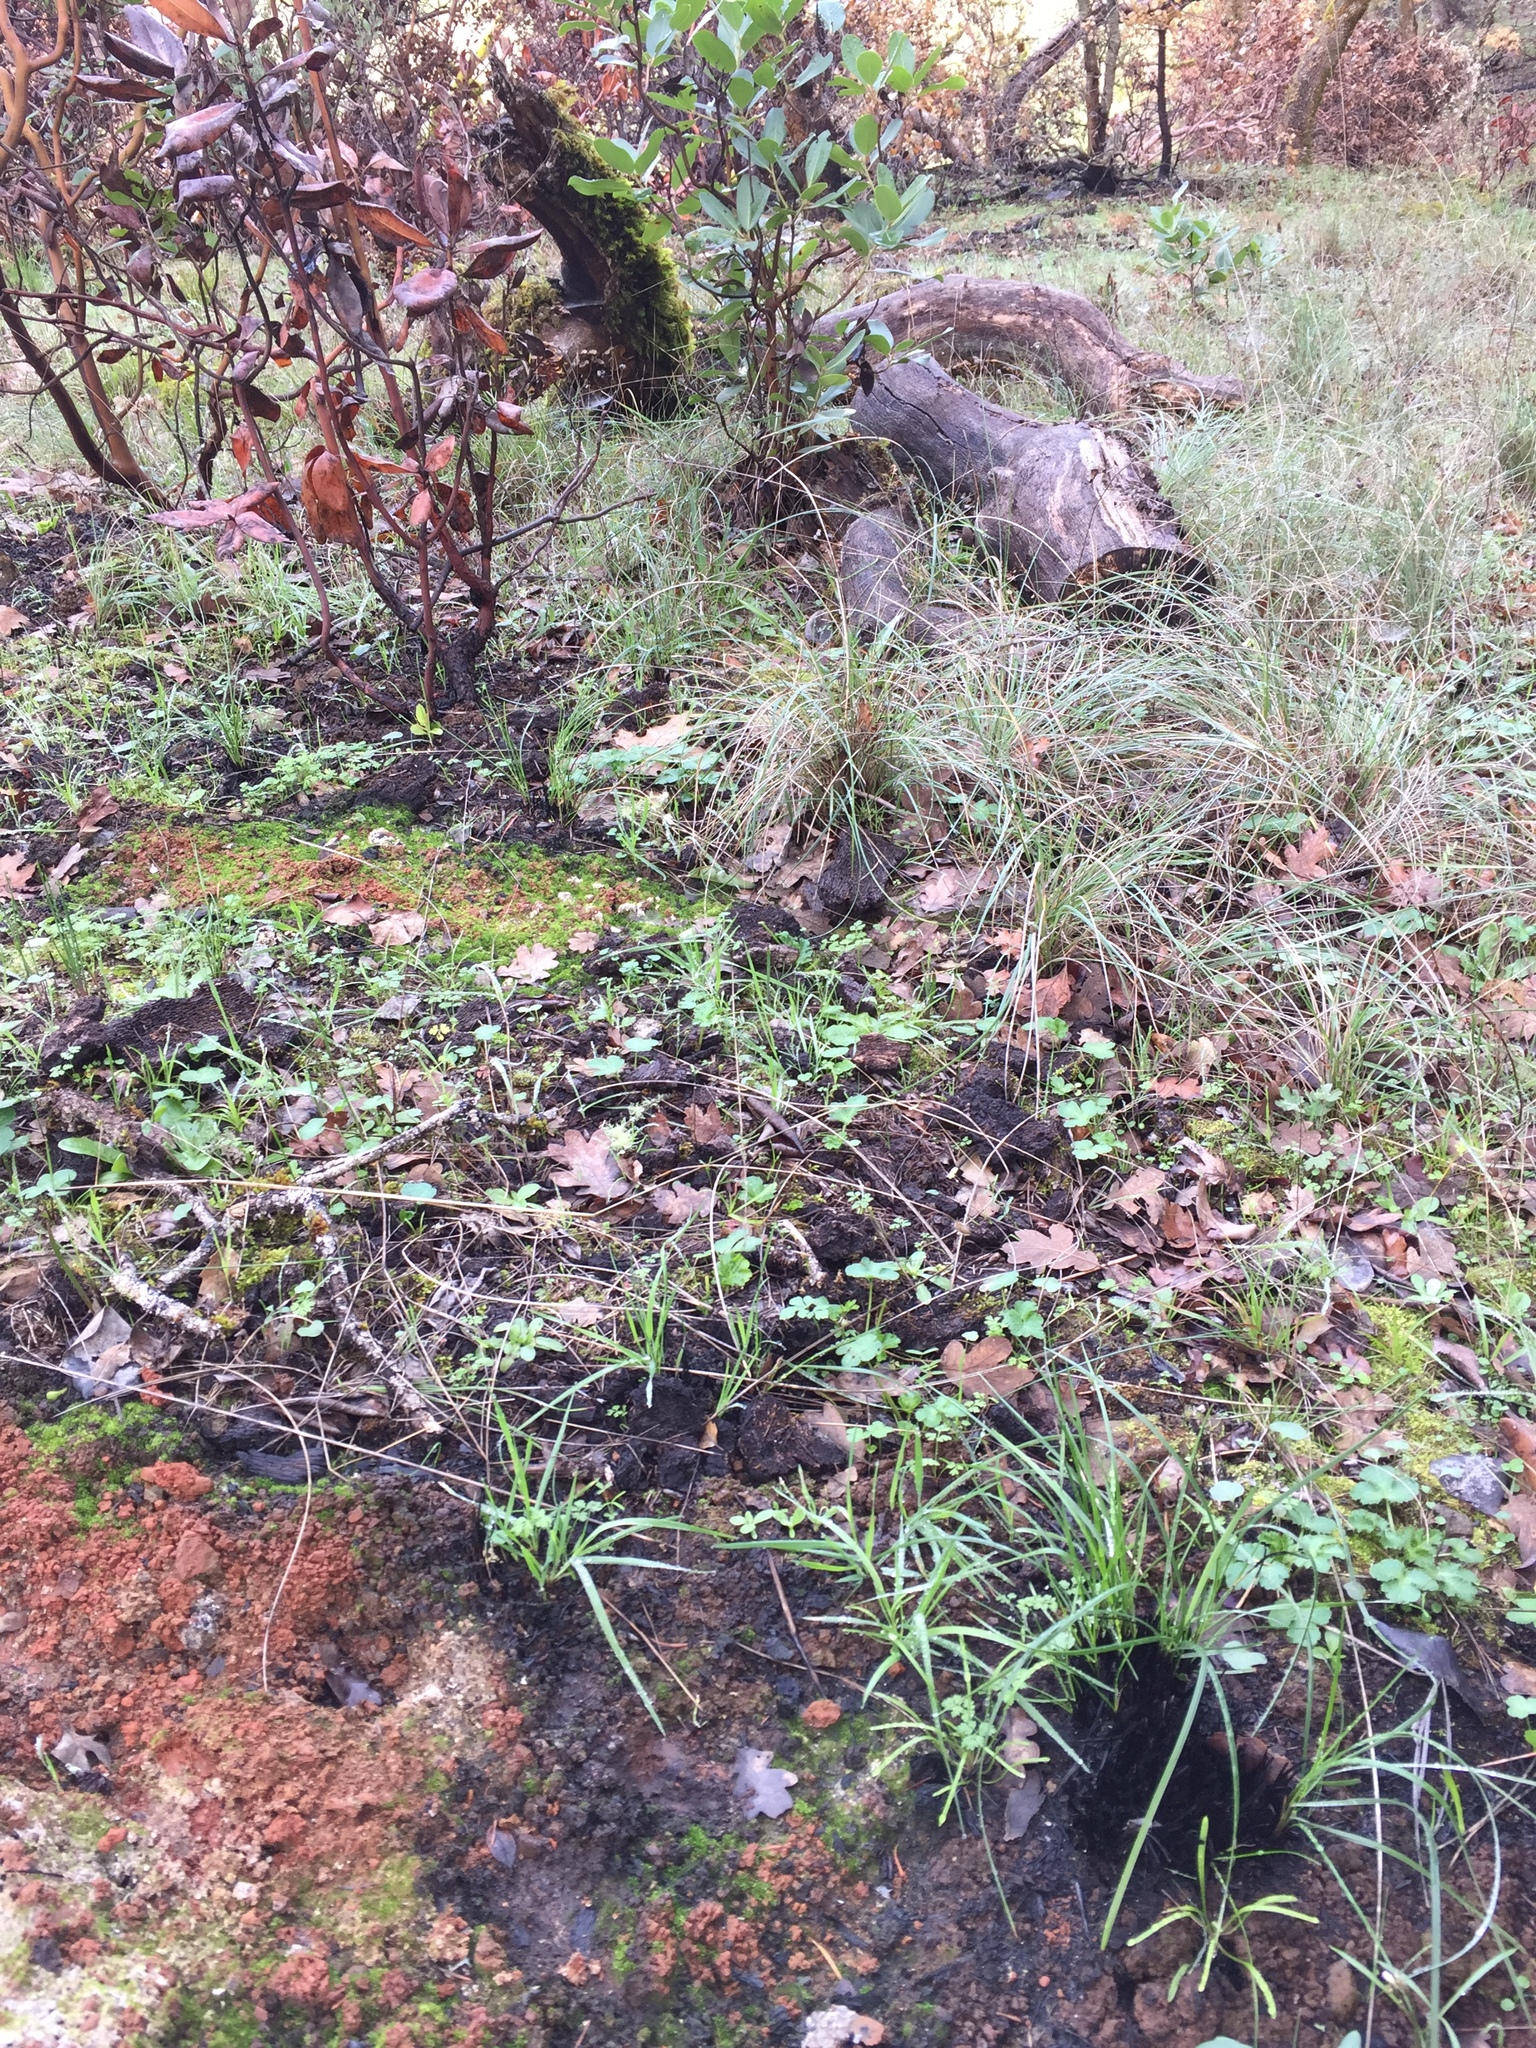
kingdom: Animalia
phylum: Chordata
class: Amphibia
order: Anura
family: Hylidae
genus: Pseudacris
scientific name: Pseudacris regilla
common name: Pacific chorus frog
